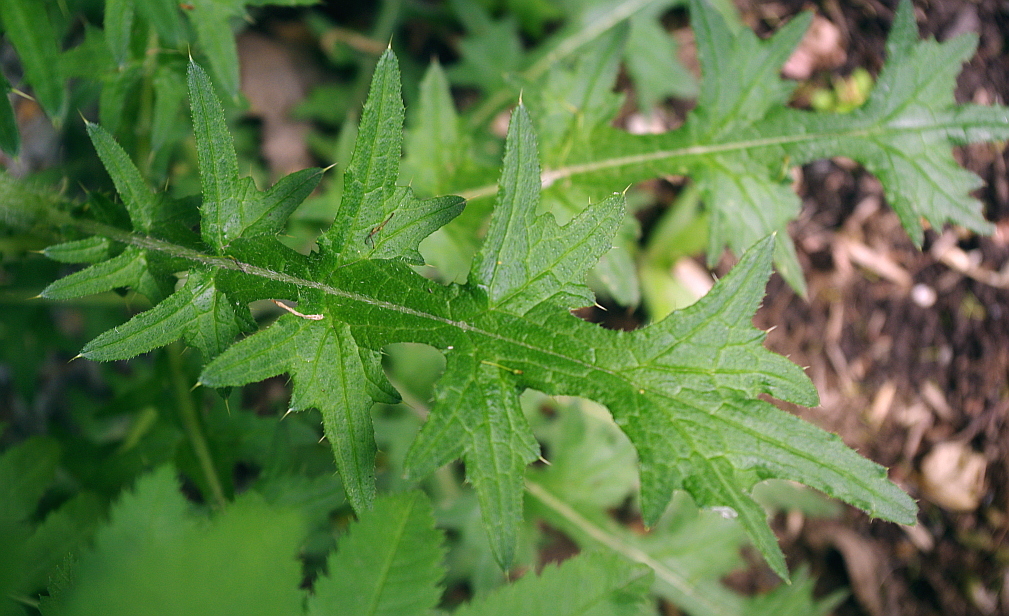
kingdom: Plantae
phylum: Tracheophyta
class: Magnoliopsida
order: Asterales
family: Asteraceae
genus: Cirsium
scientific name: Cirsium vulgare
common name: Bull thistle
